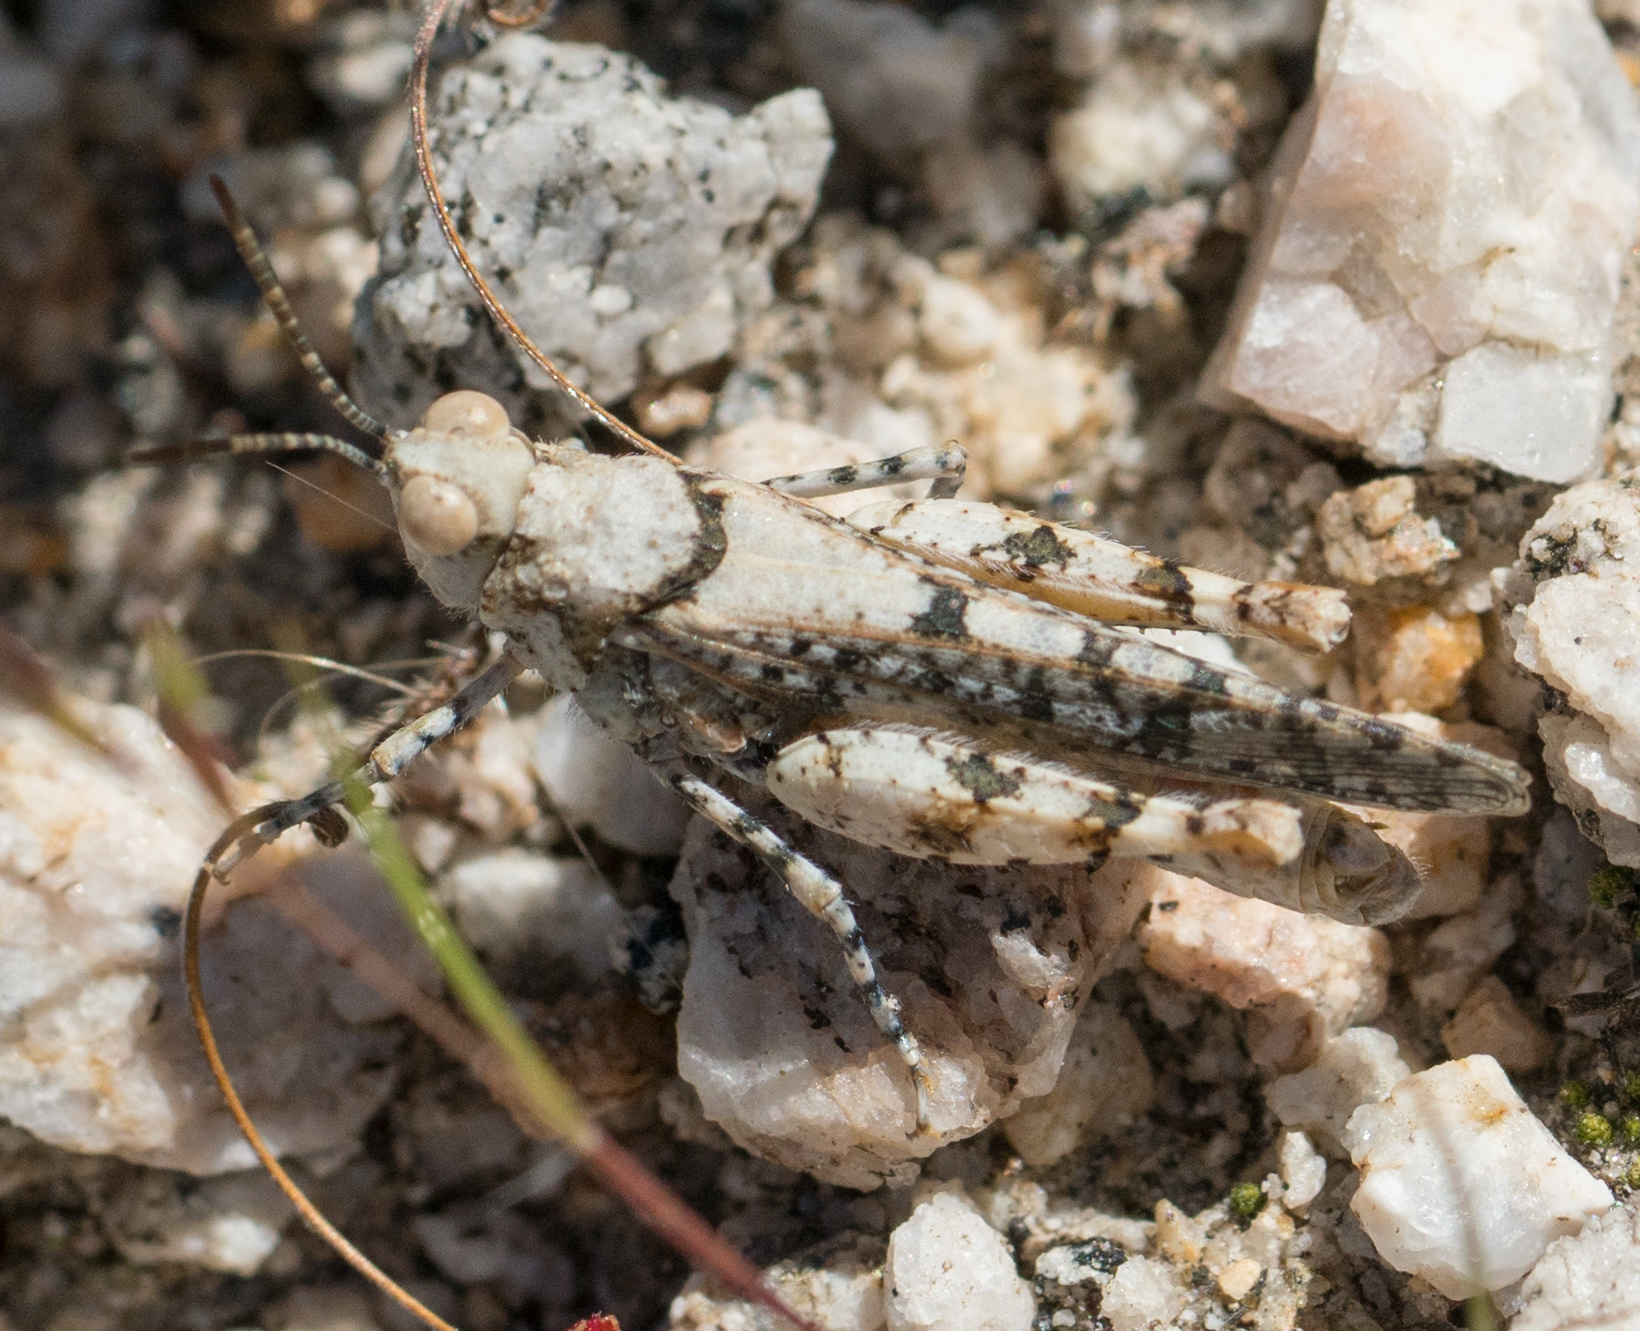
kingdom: Animalia
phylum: Arthropoda
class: Insecta
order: Orthoptera
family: Acrididae
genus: Cibolacris
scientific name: Cibolacris parviceps
